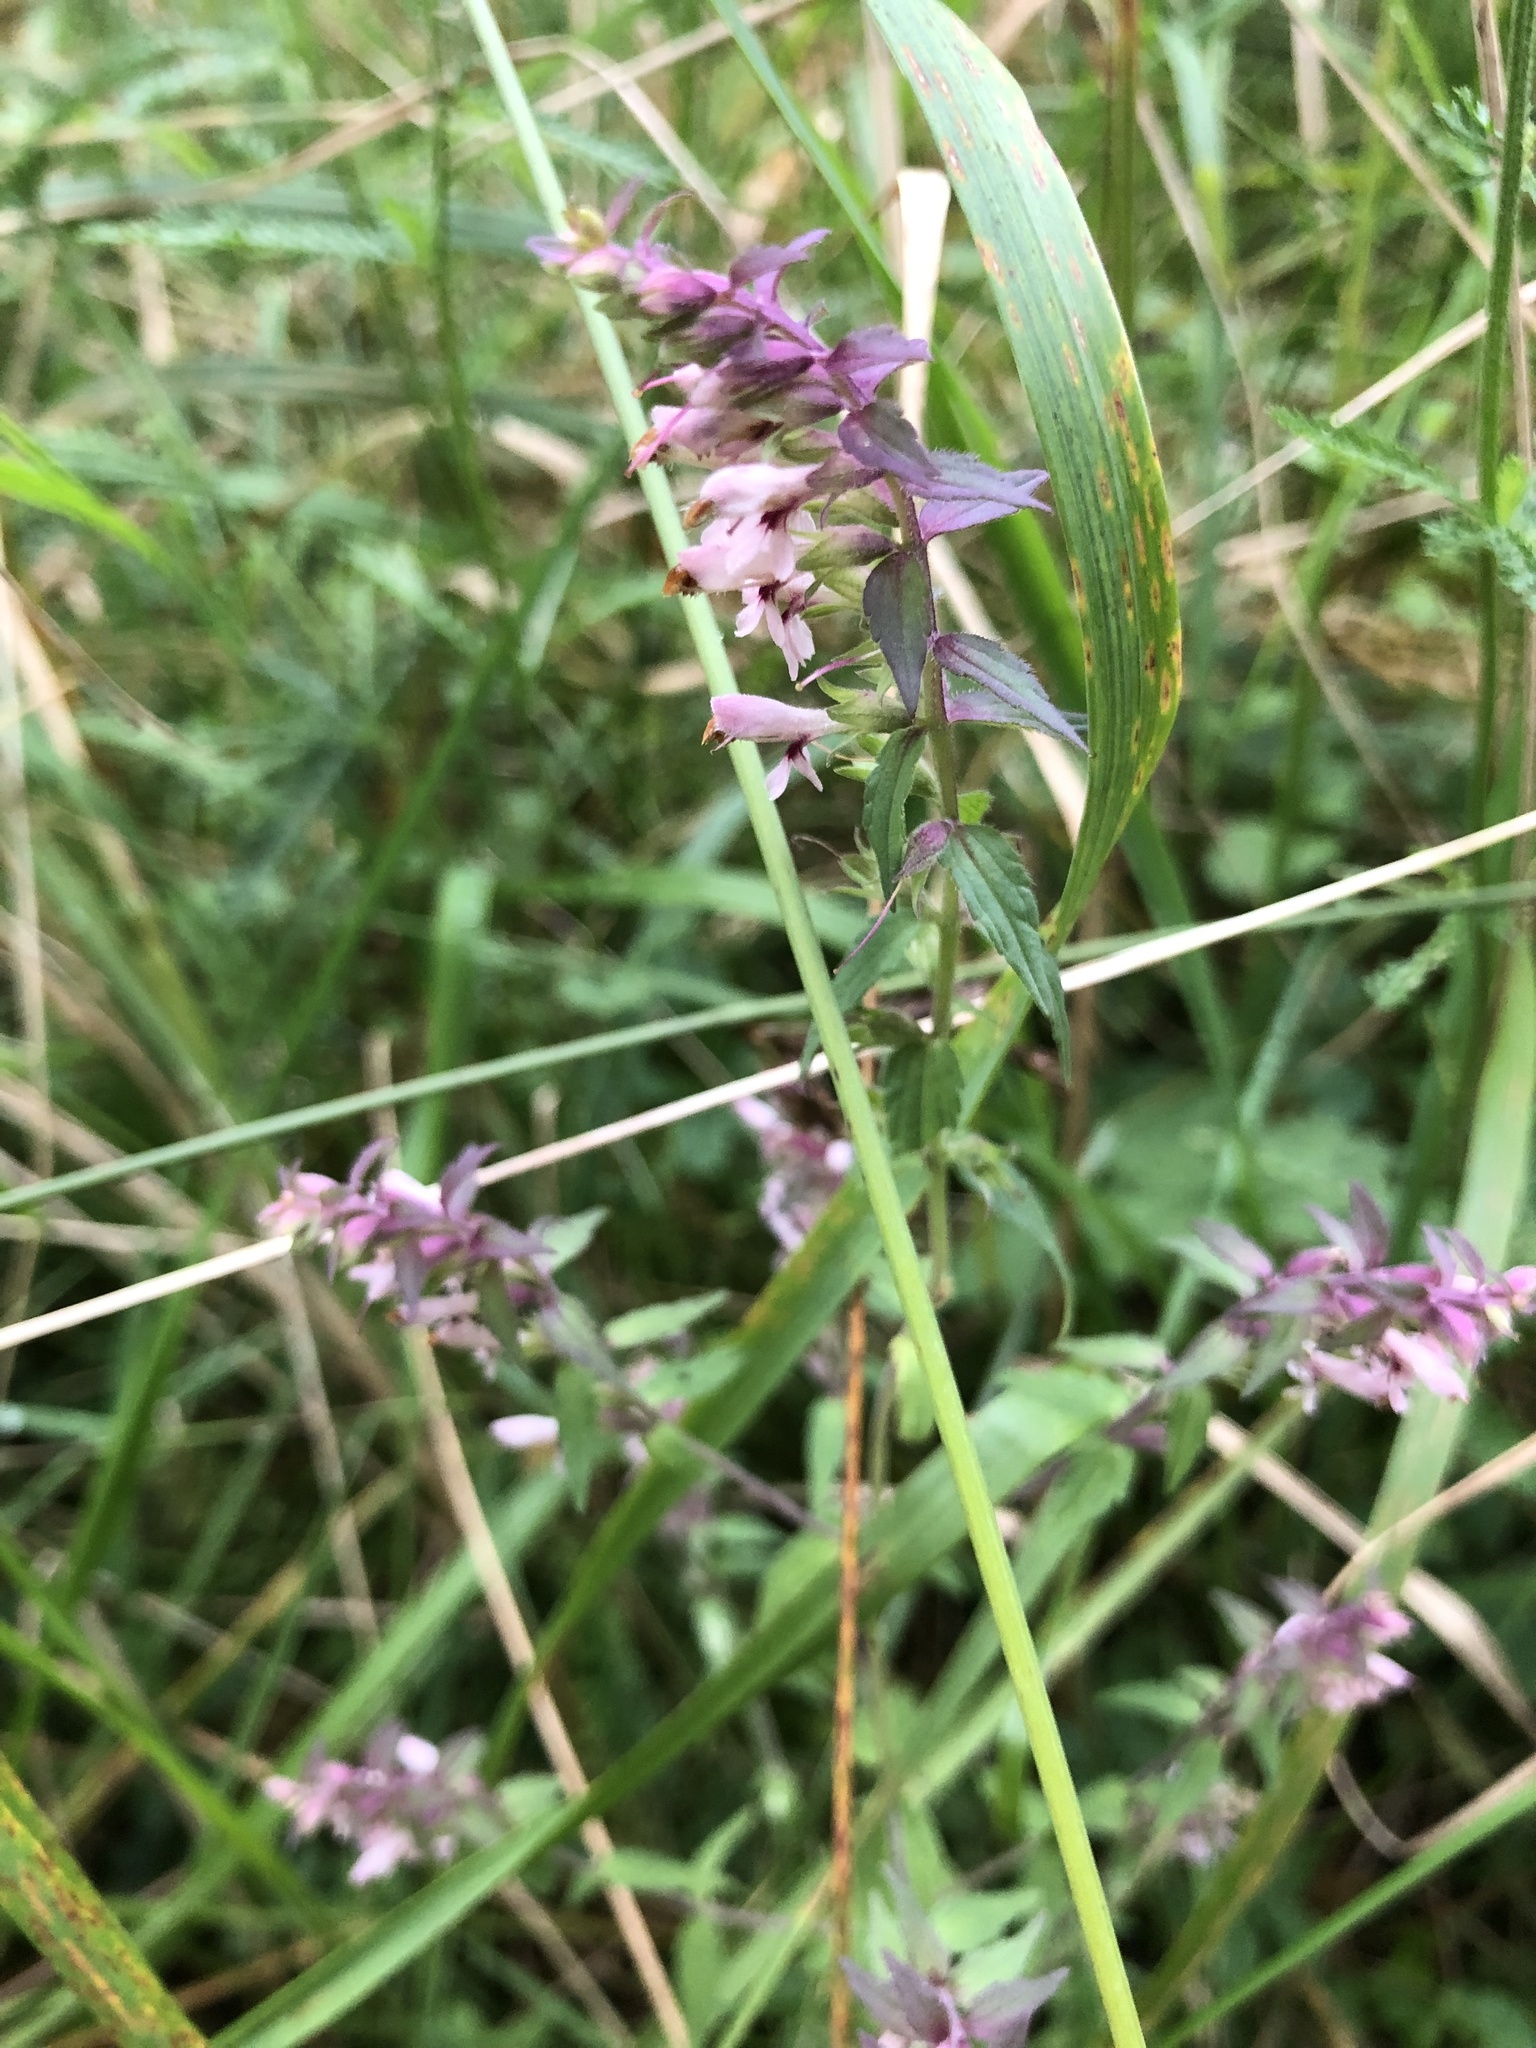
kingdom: Plantae
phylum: Tracheophyta
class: Magnoliopsida
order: Lamiales
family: Orobanchaceae
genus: Odontites
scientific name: Odontites vulgaris
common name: Broomrape
